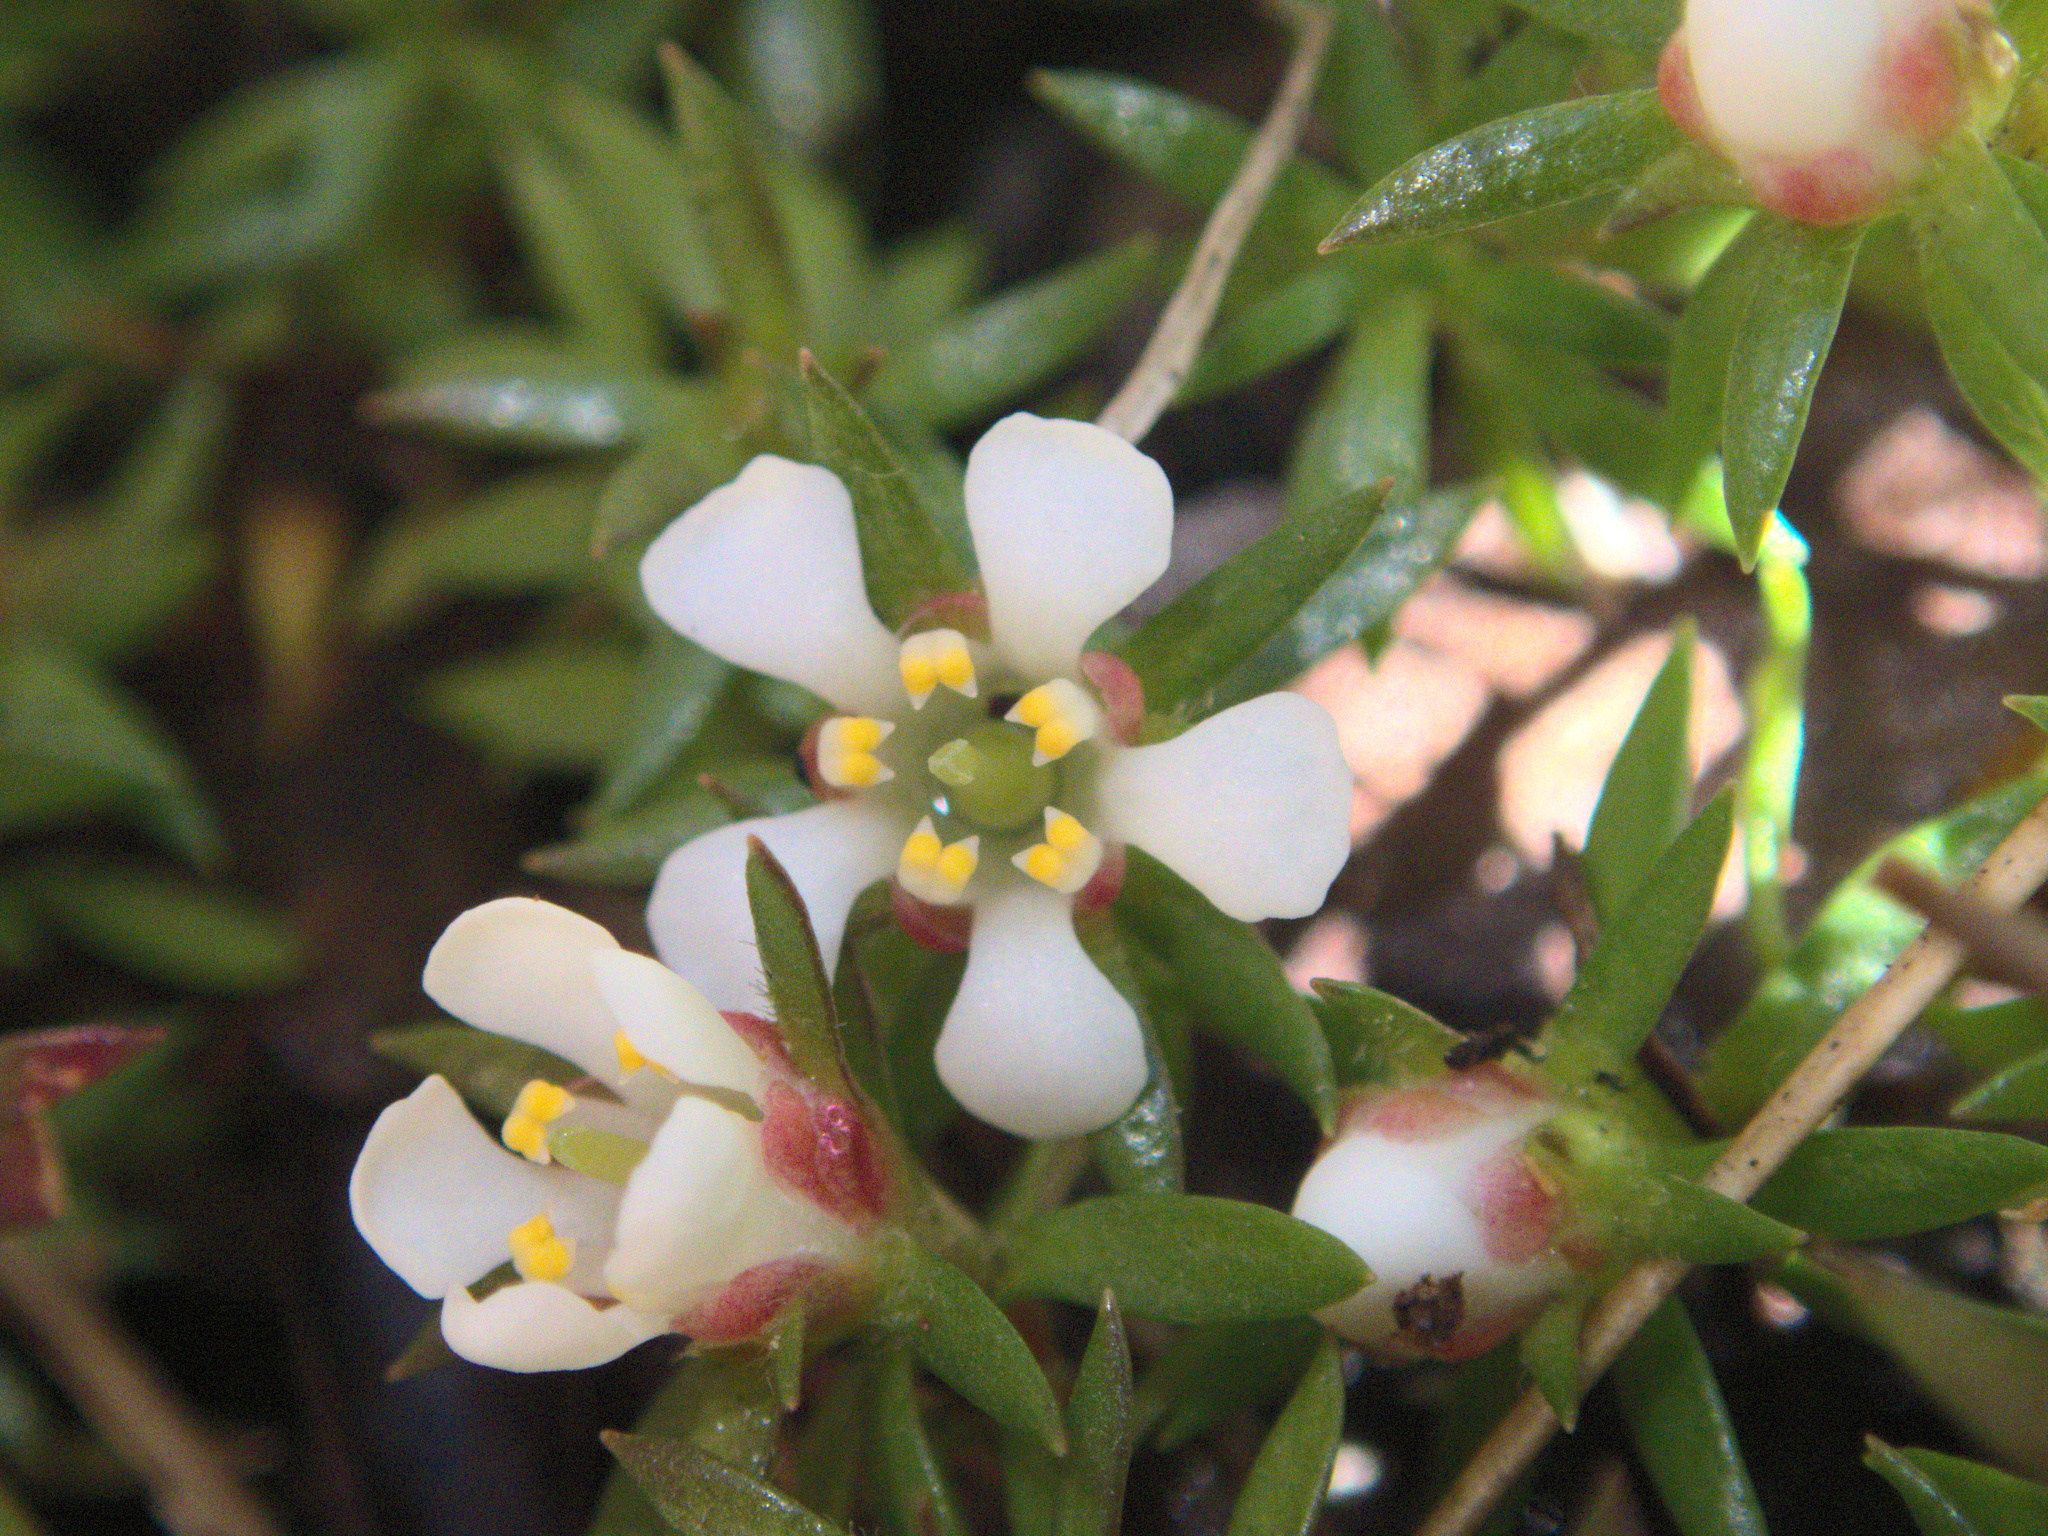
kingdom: Plantae
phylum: Tracheophyta
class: Magnoliopsida
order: Ericales
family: Diapensiaceae
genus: Pyxidanthera
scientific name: Pyxidanthera barbulata
